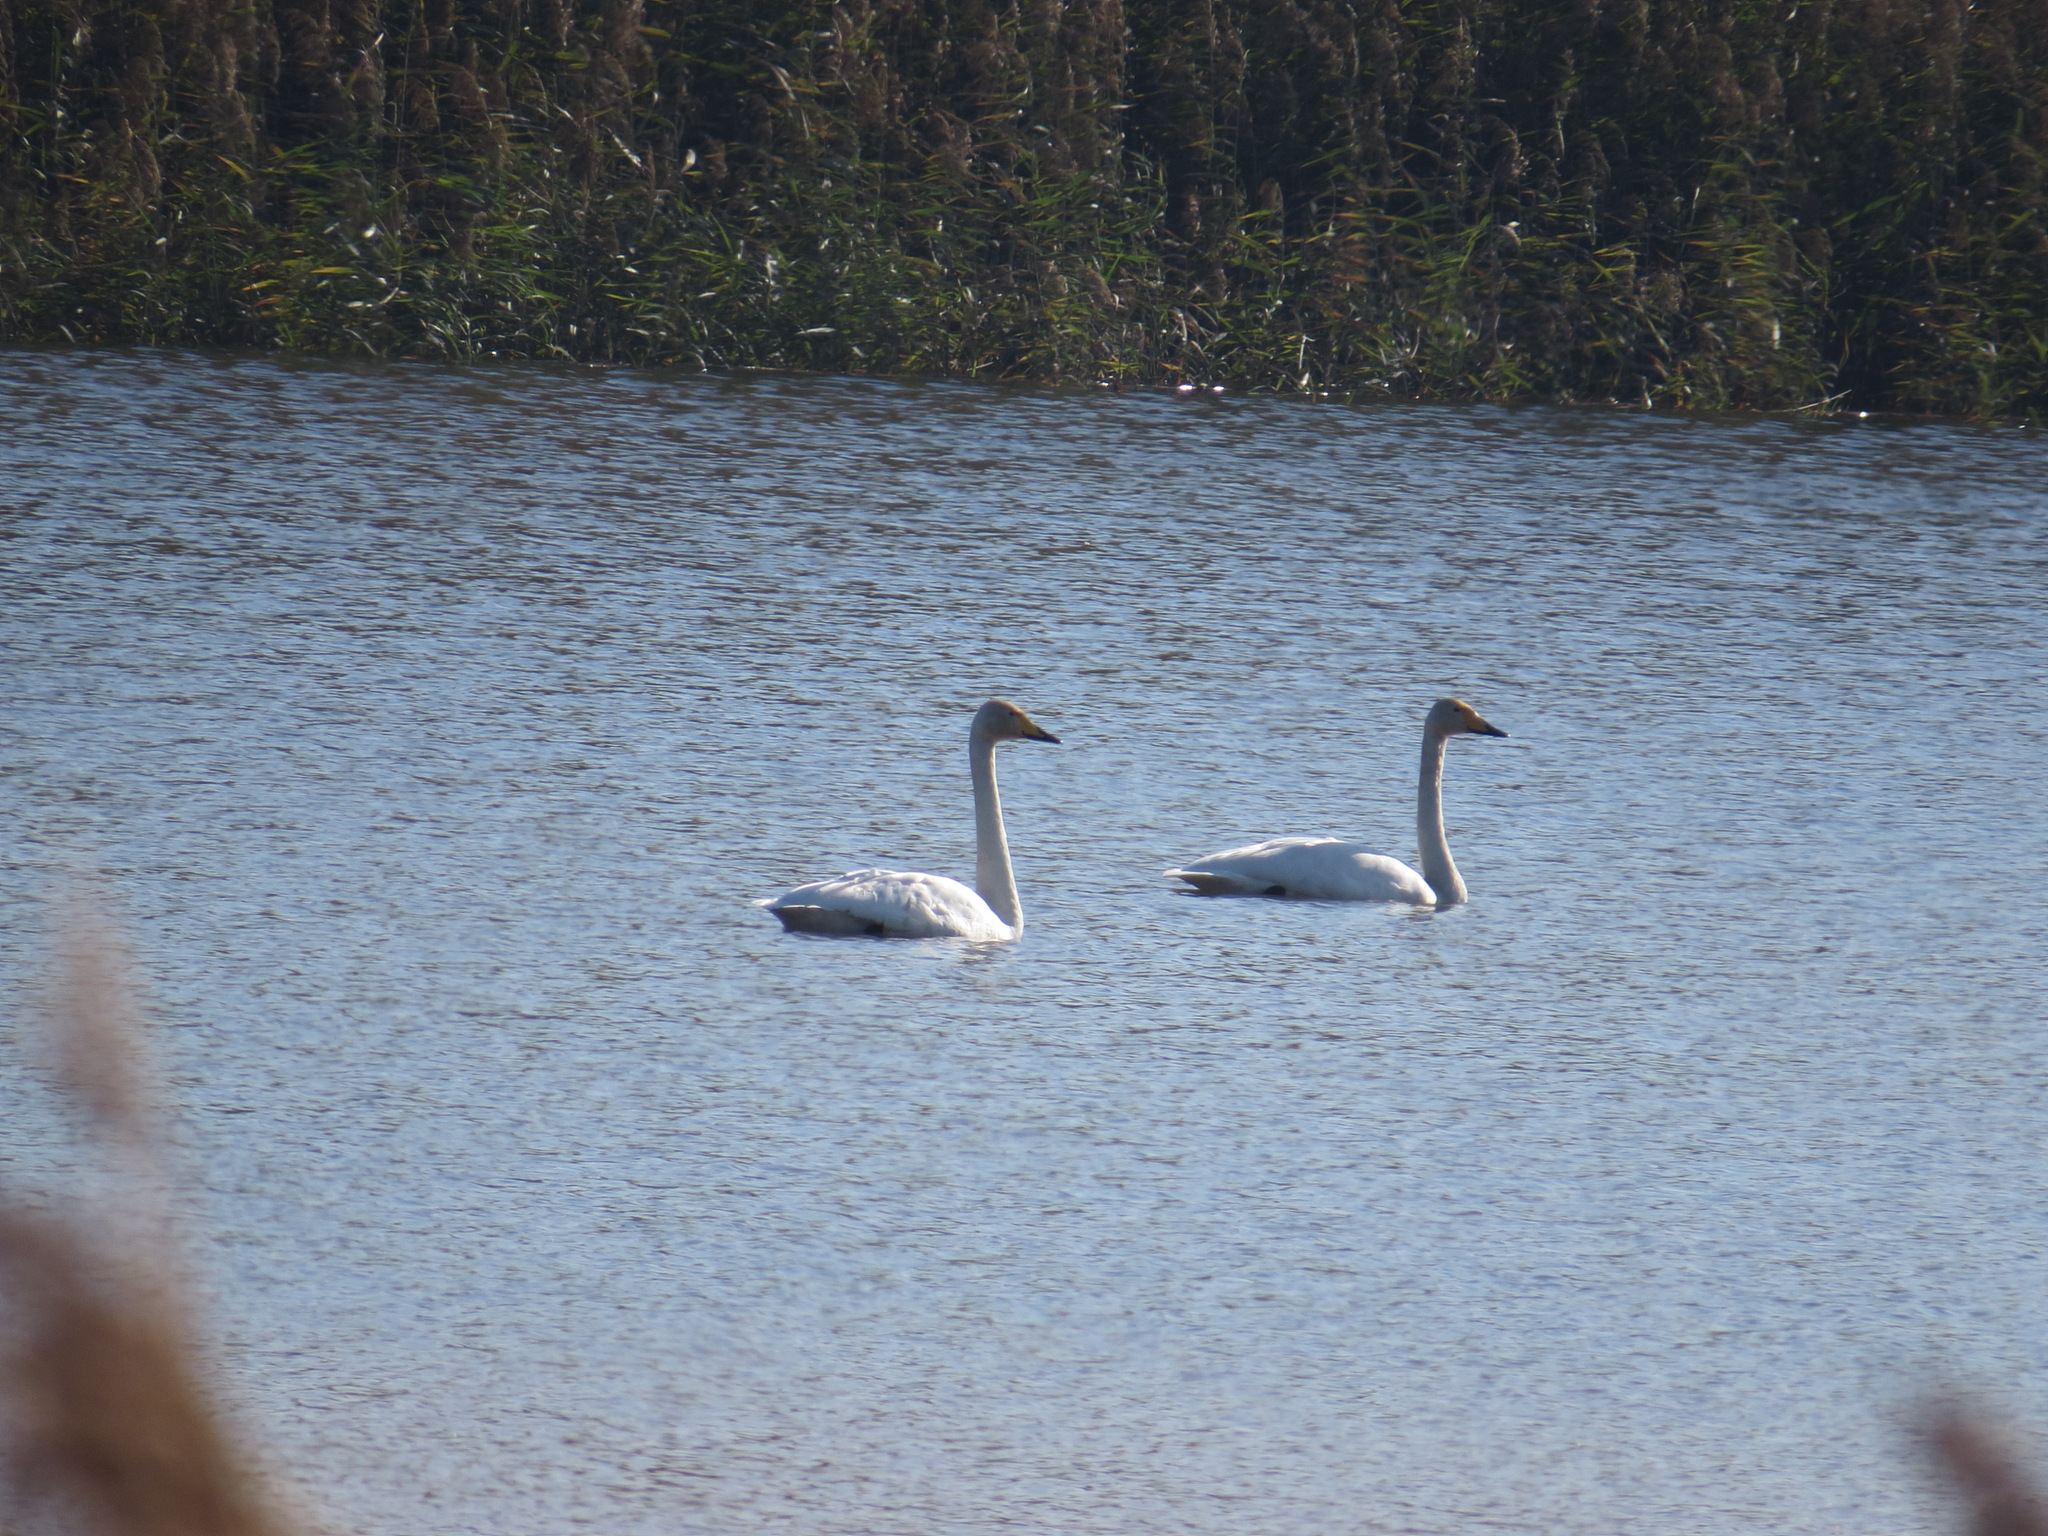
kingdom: Animalia
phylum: Chordata
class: Aves
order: Anseriformes
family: Anatidae
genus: Cygnus
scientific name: Cygnus cygnus
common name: Whooper swan
